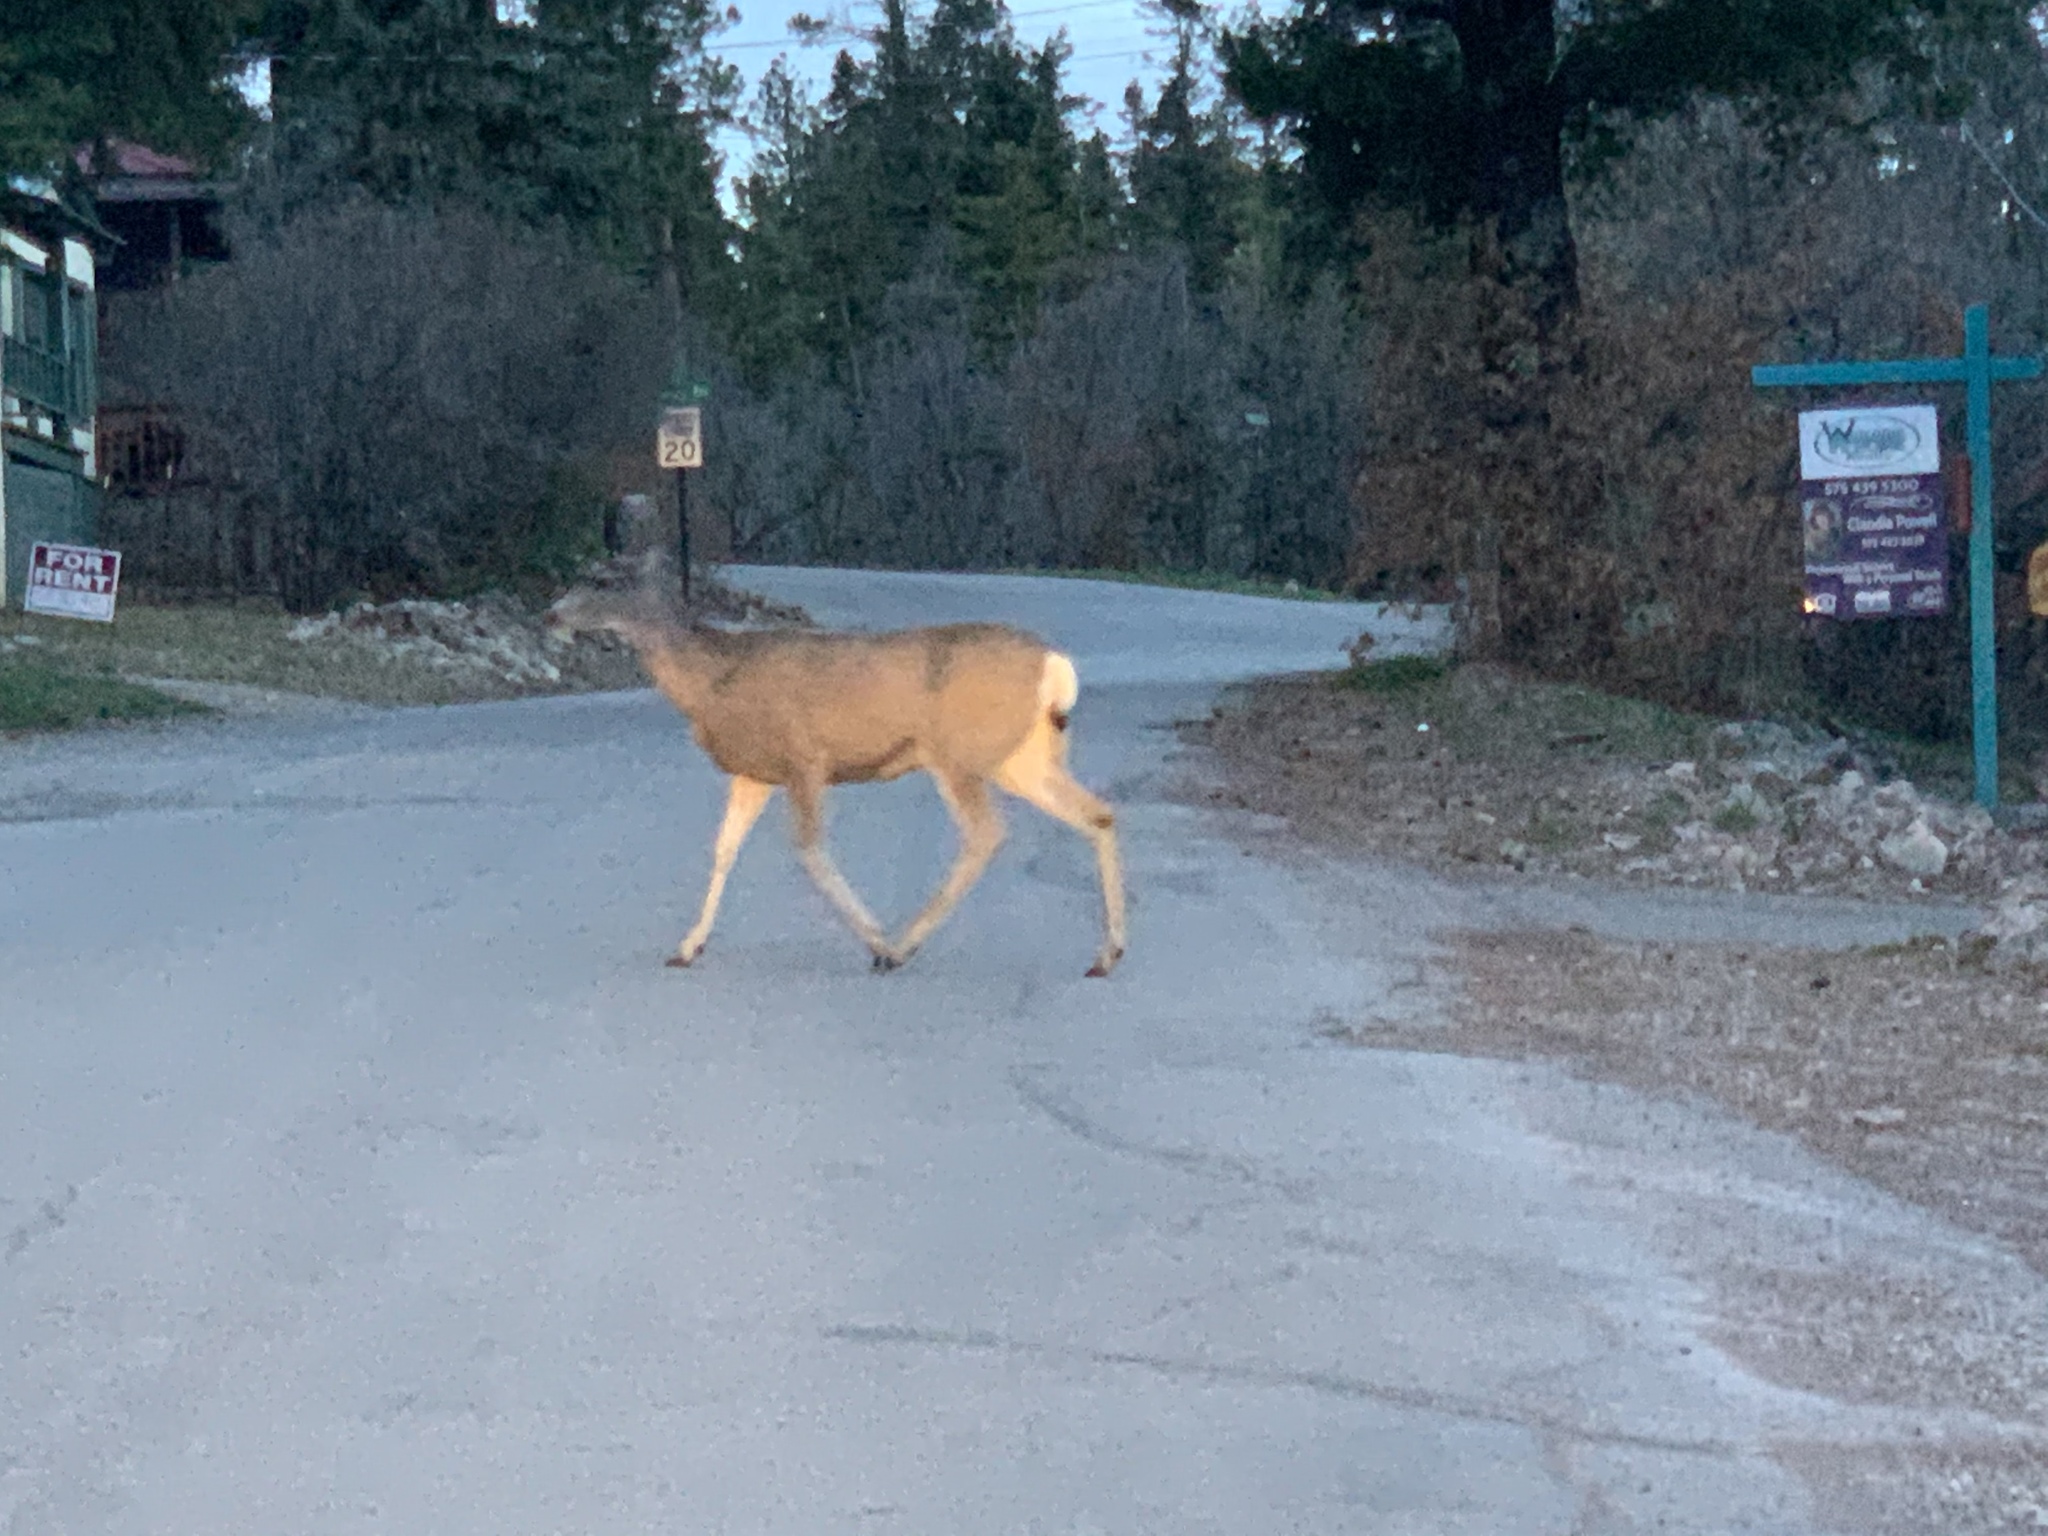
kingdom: Animalia
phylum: Chordata
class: Mammalia
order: Artiodactyla
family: Cervidae
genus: Odocoileus
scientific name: Odocoileus hemionus
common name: Mule deer
